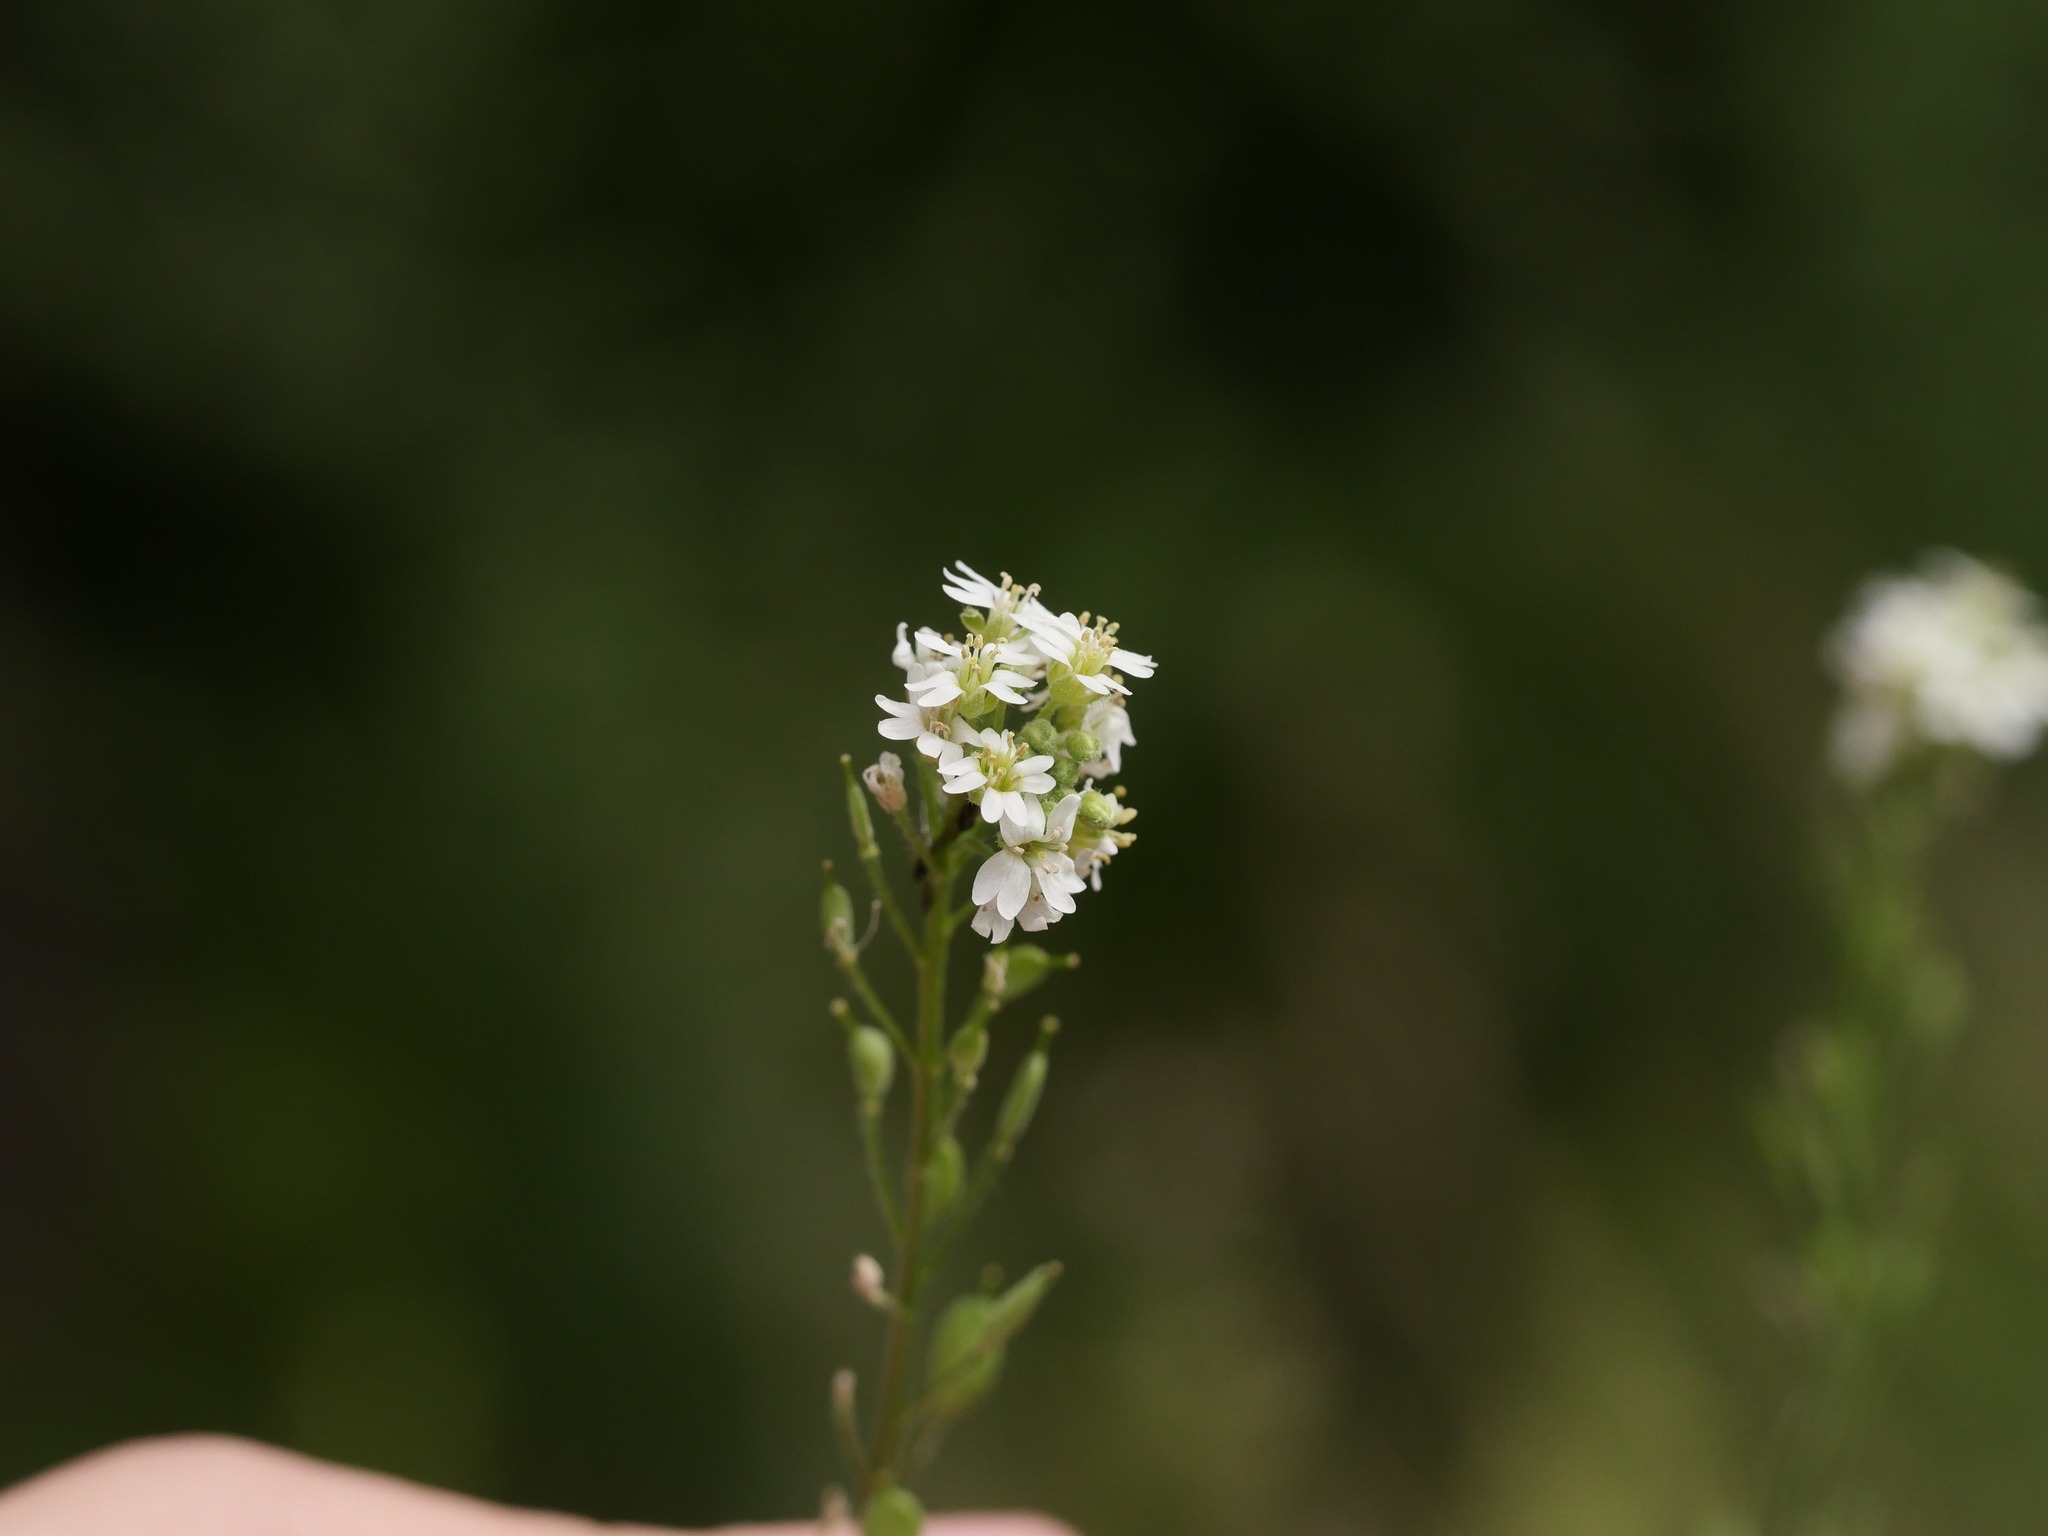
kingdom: Plantae
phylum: Tracheophyta
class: Magnoliopsida
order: Brassicales
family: Brassicaceae
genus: Berteroa
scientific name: Berteroa incana
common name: Hoary alison
